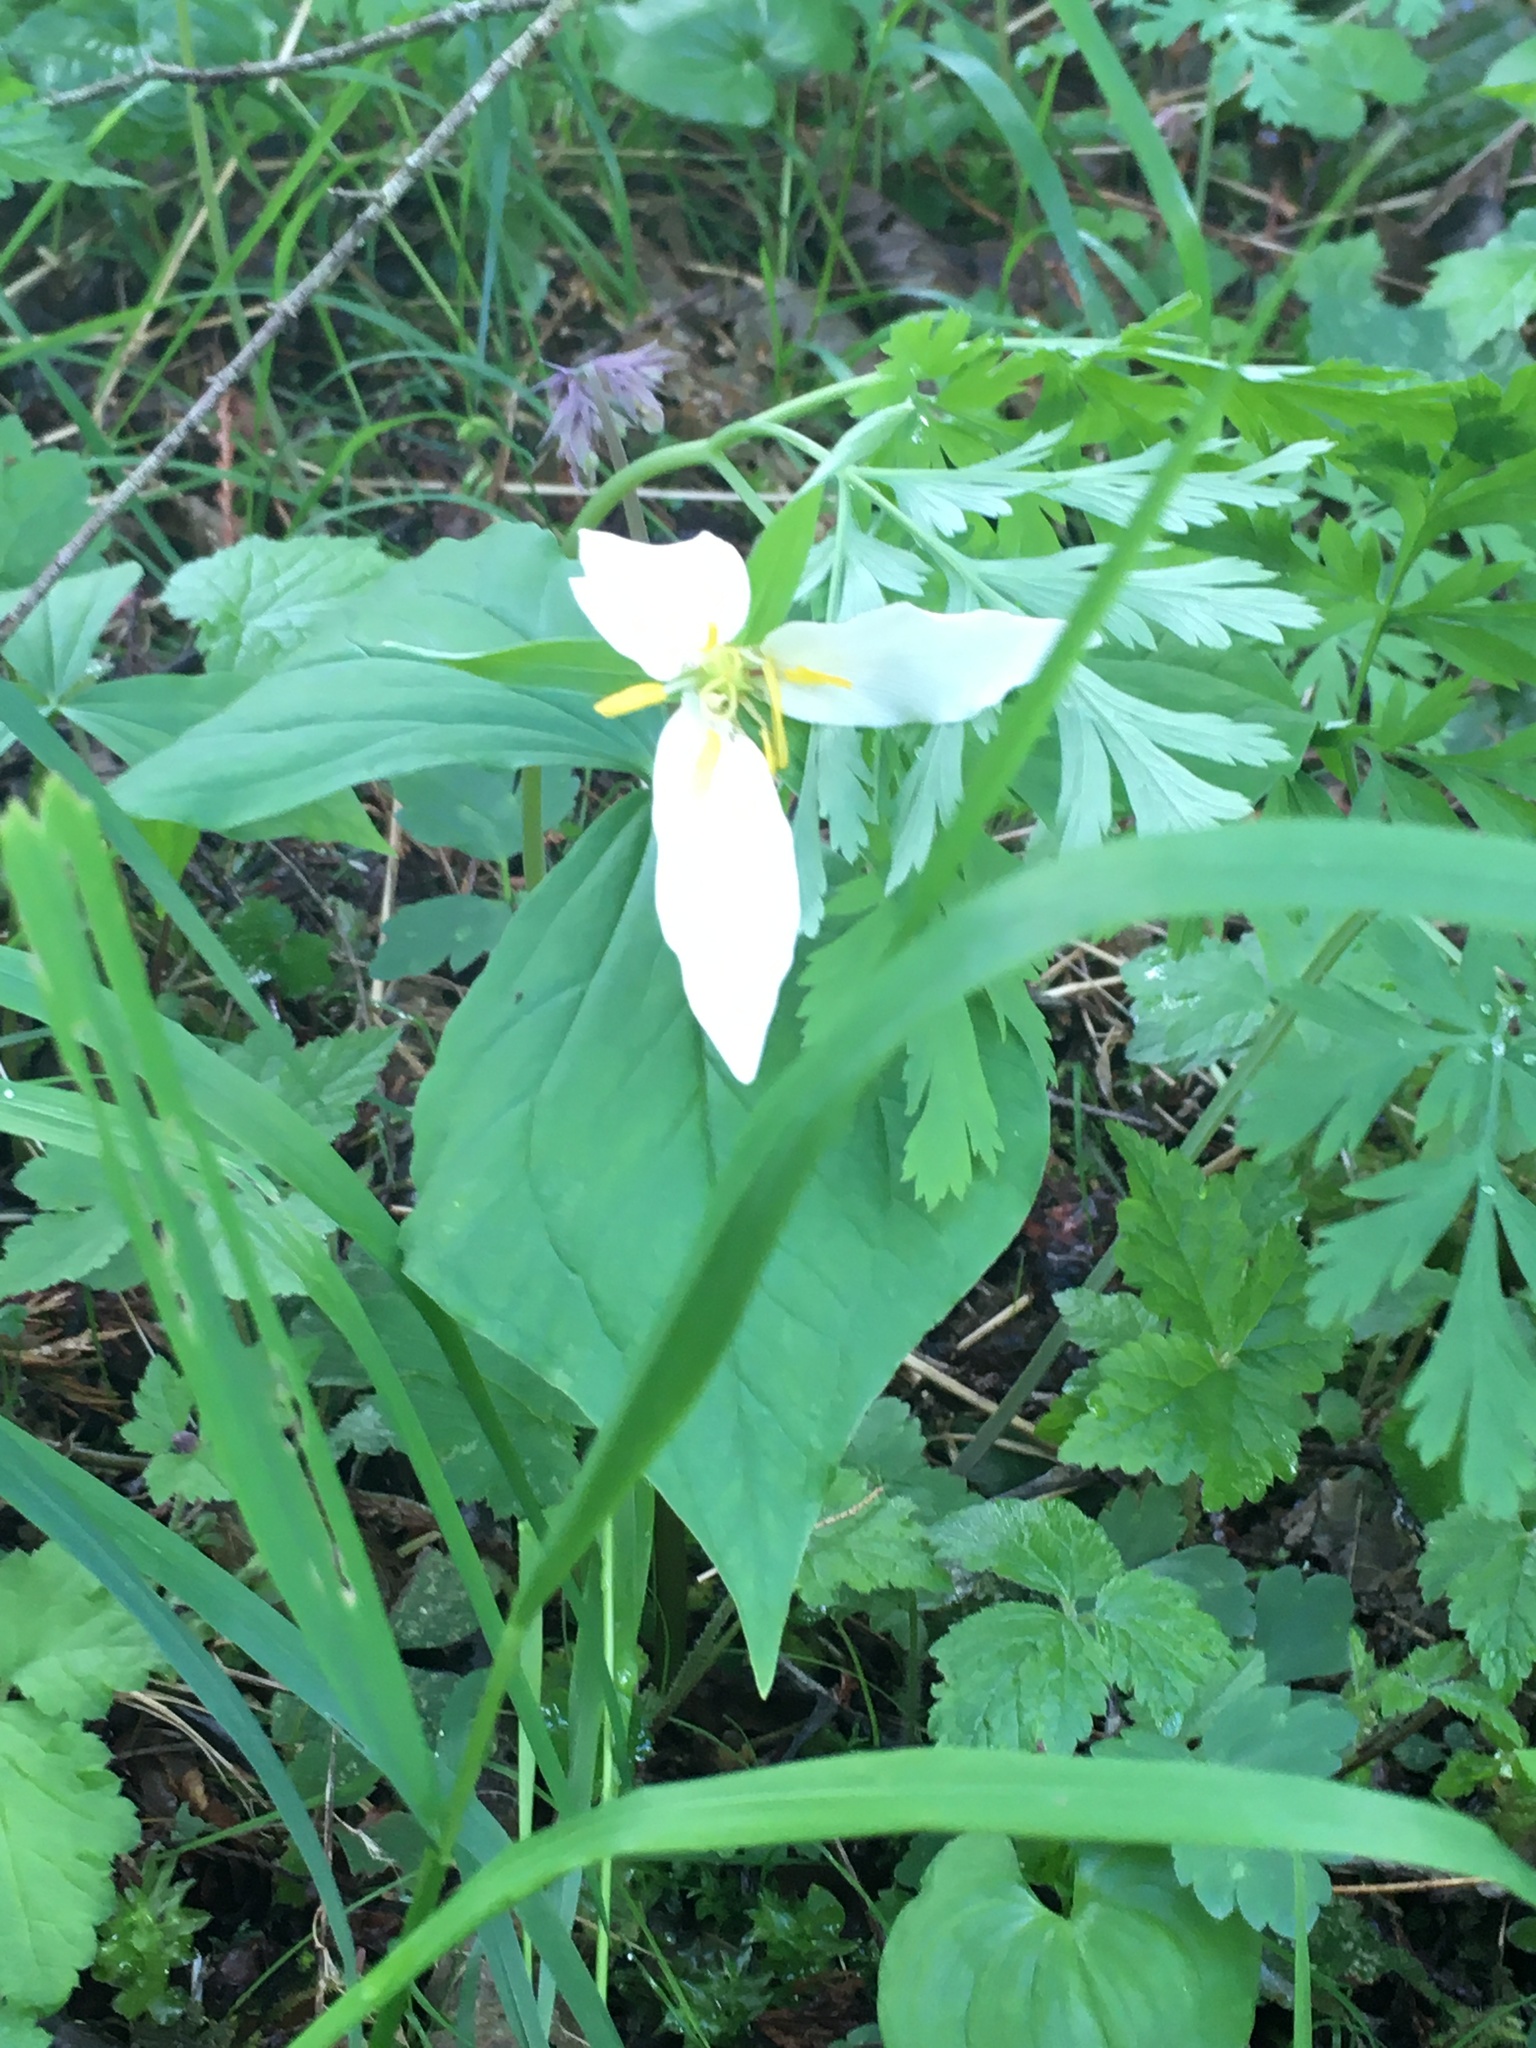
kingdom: Plantae
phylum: Tracheophyta
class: Liliopsida
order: Liliales
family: Melanthiaceae
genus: Trillium
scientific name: Trillium ovatum
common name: Pacific trillium
